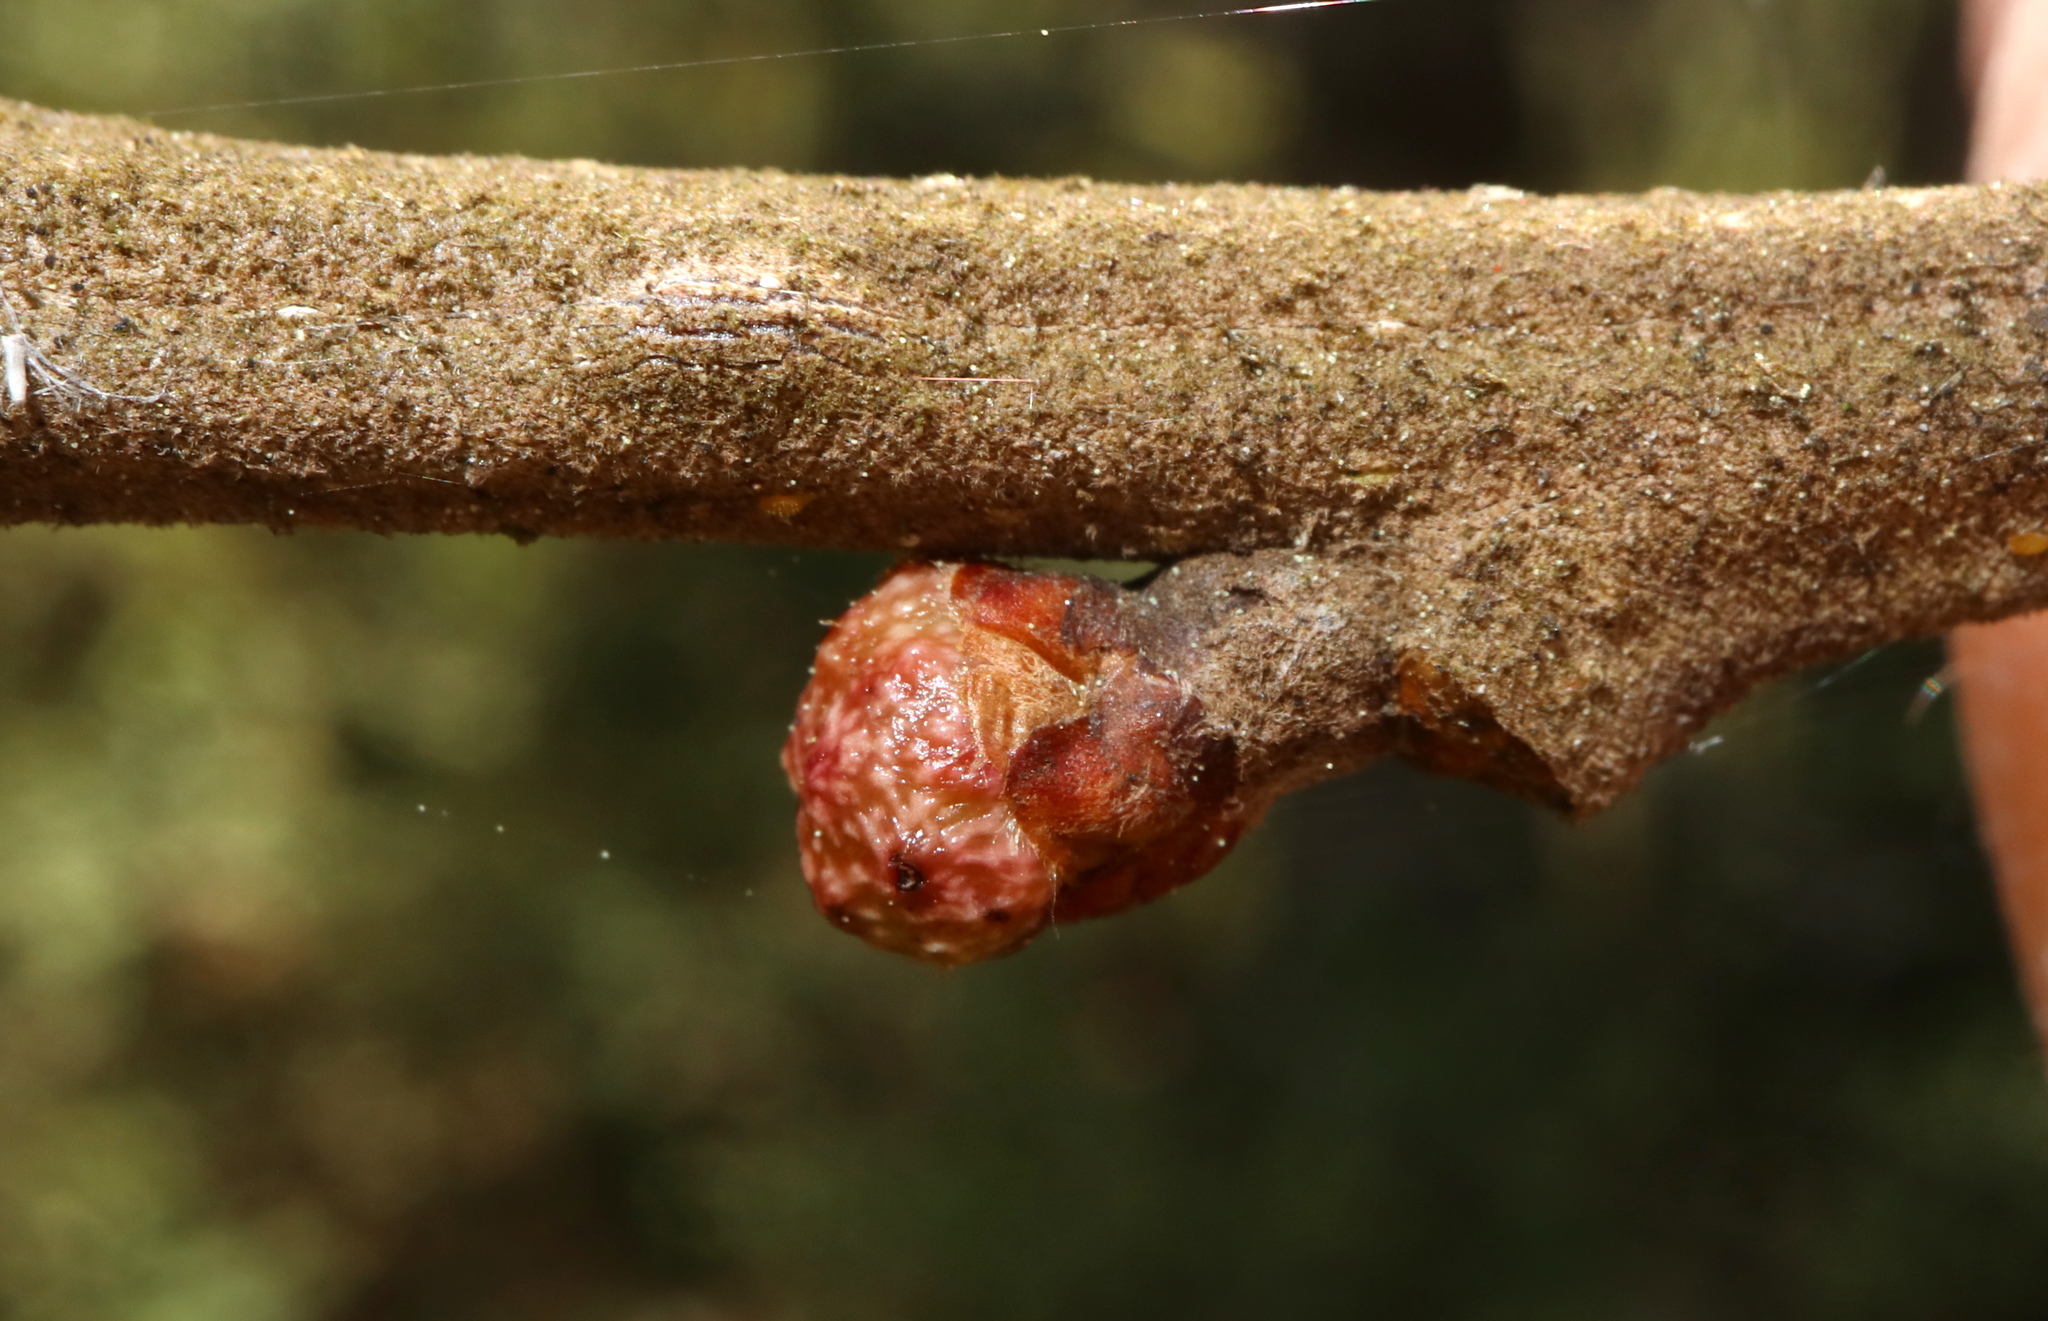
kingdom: Animalia
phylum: Arthropoda
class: Insecta
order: Hymenoptera
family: Cynipidae
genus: Andricus
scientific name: Andricus
